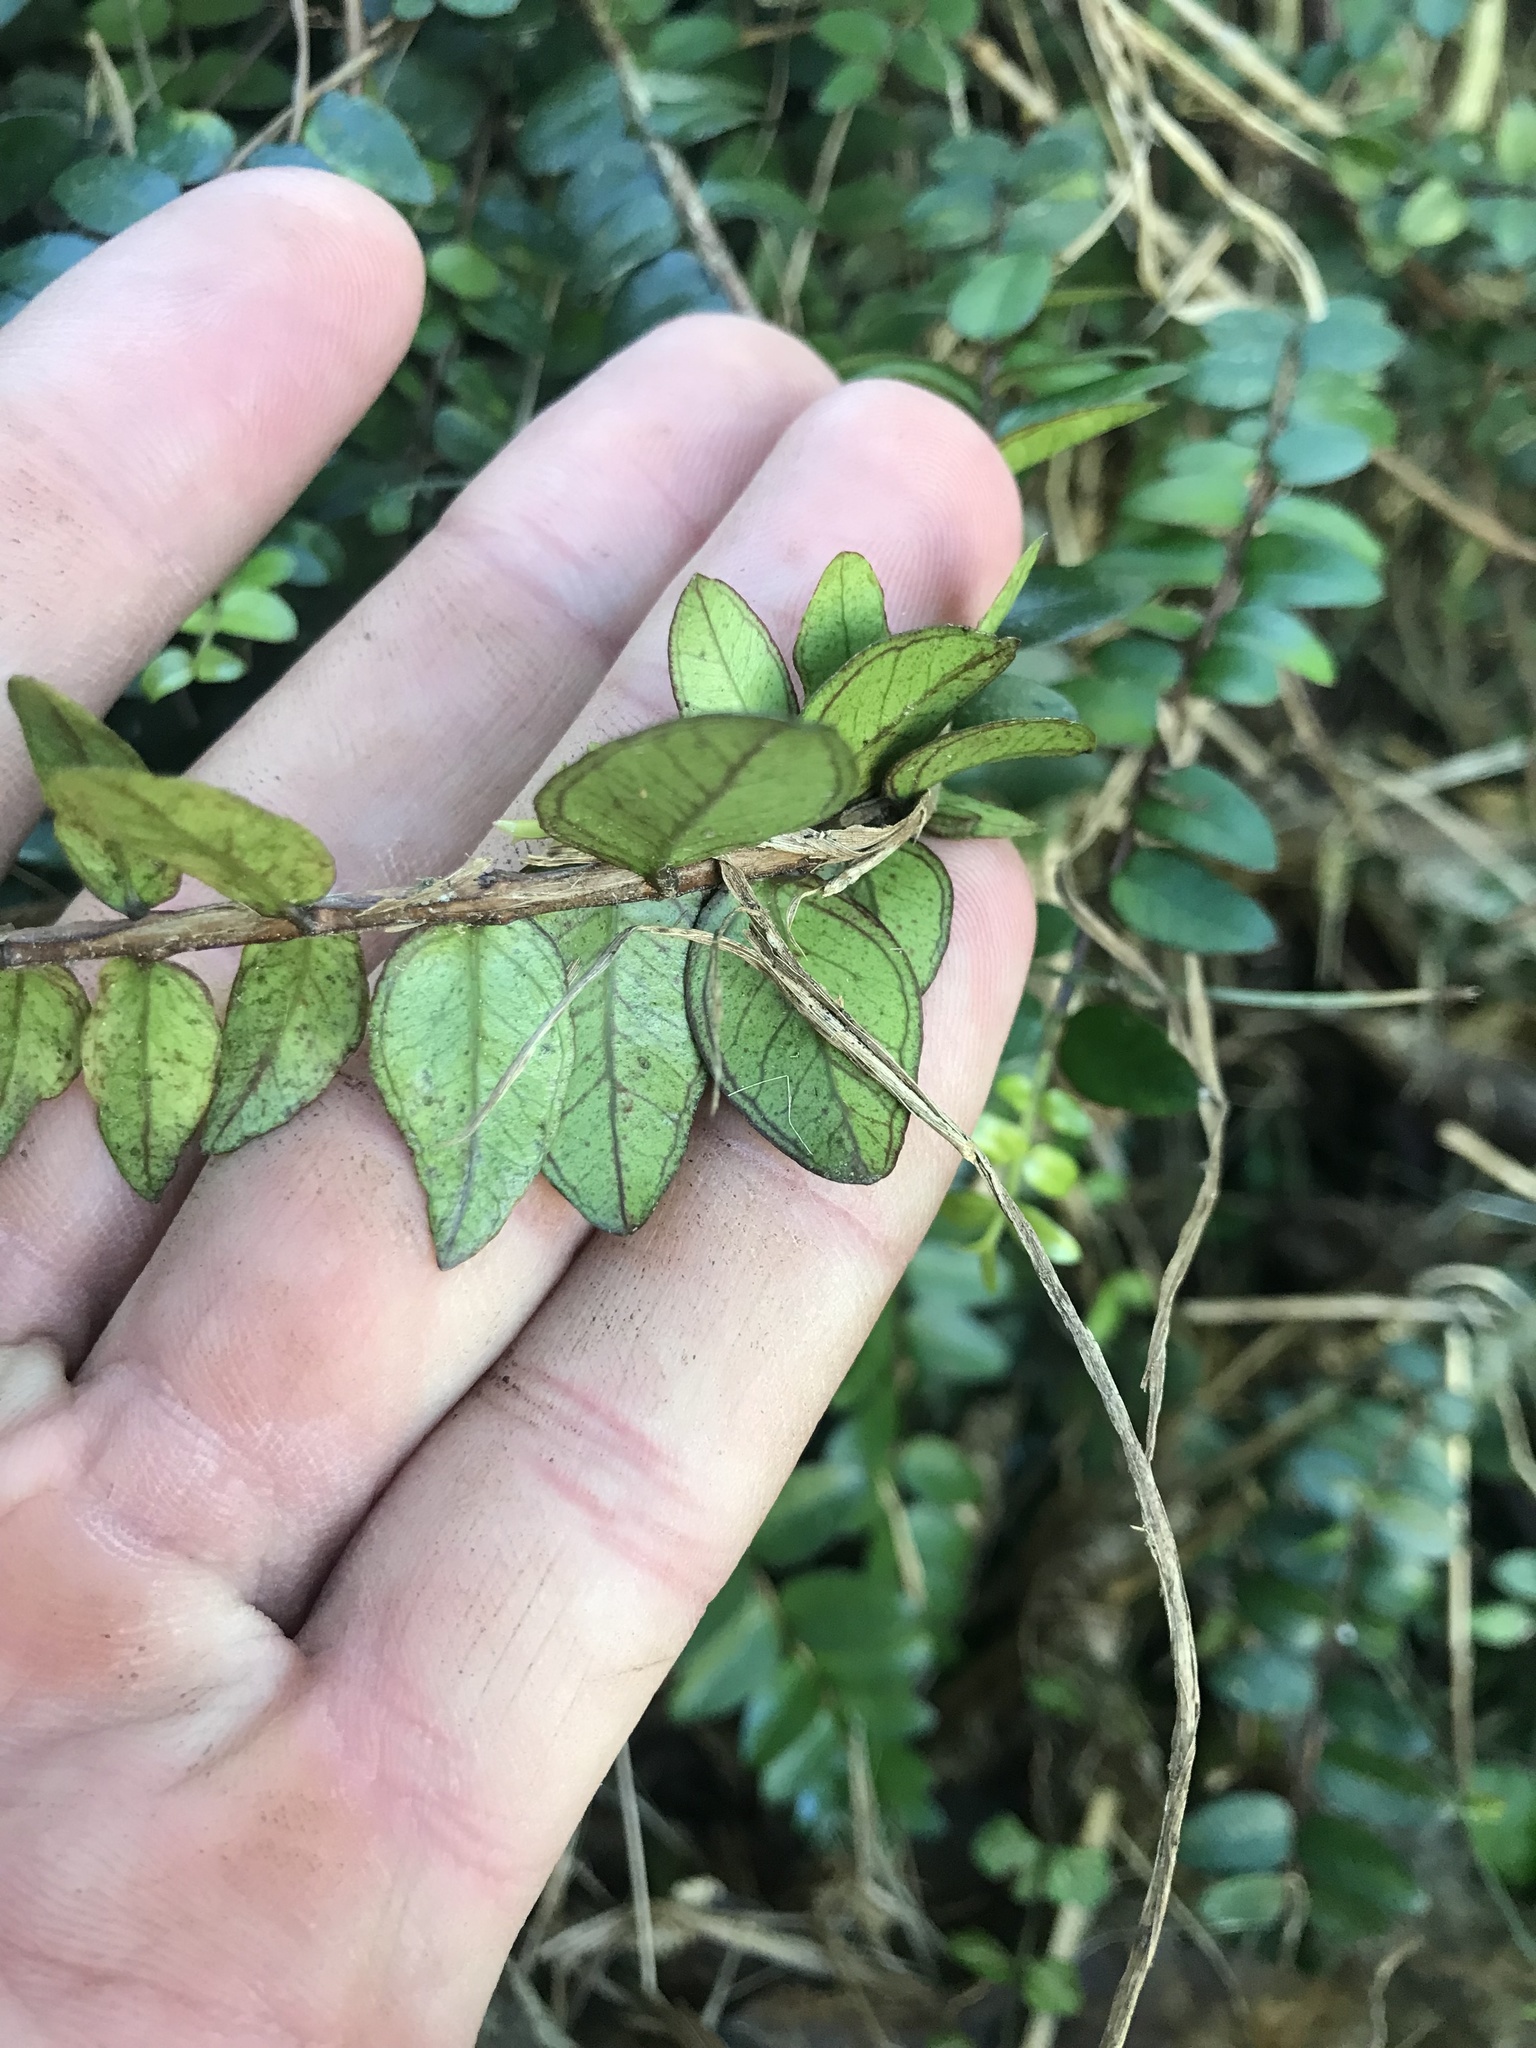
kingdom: Plantae
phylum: Tracheophyta
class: Magnoliopsida
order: Myrtales
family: Myrtaceae
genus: Metrosideros
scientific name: Metrosideros diffusa
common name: Small ratavine
